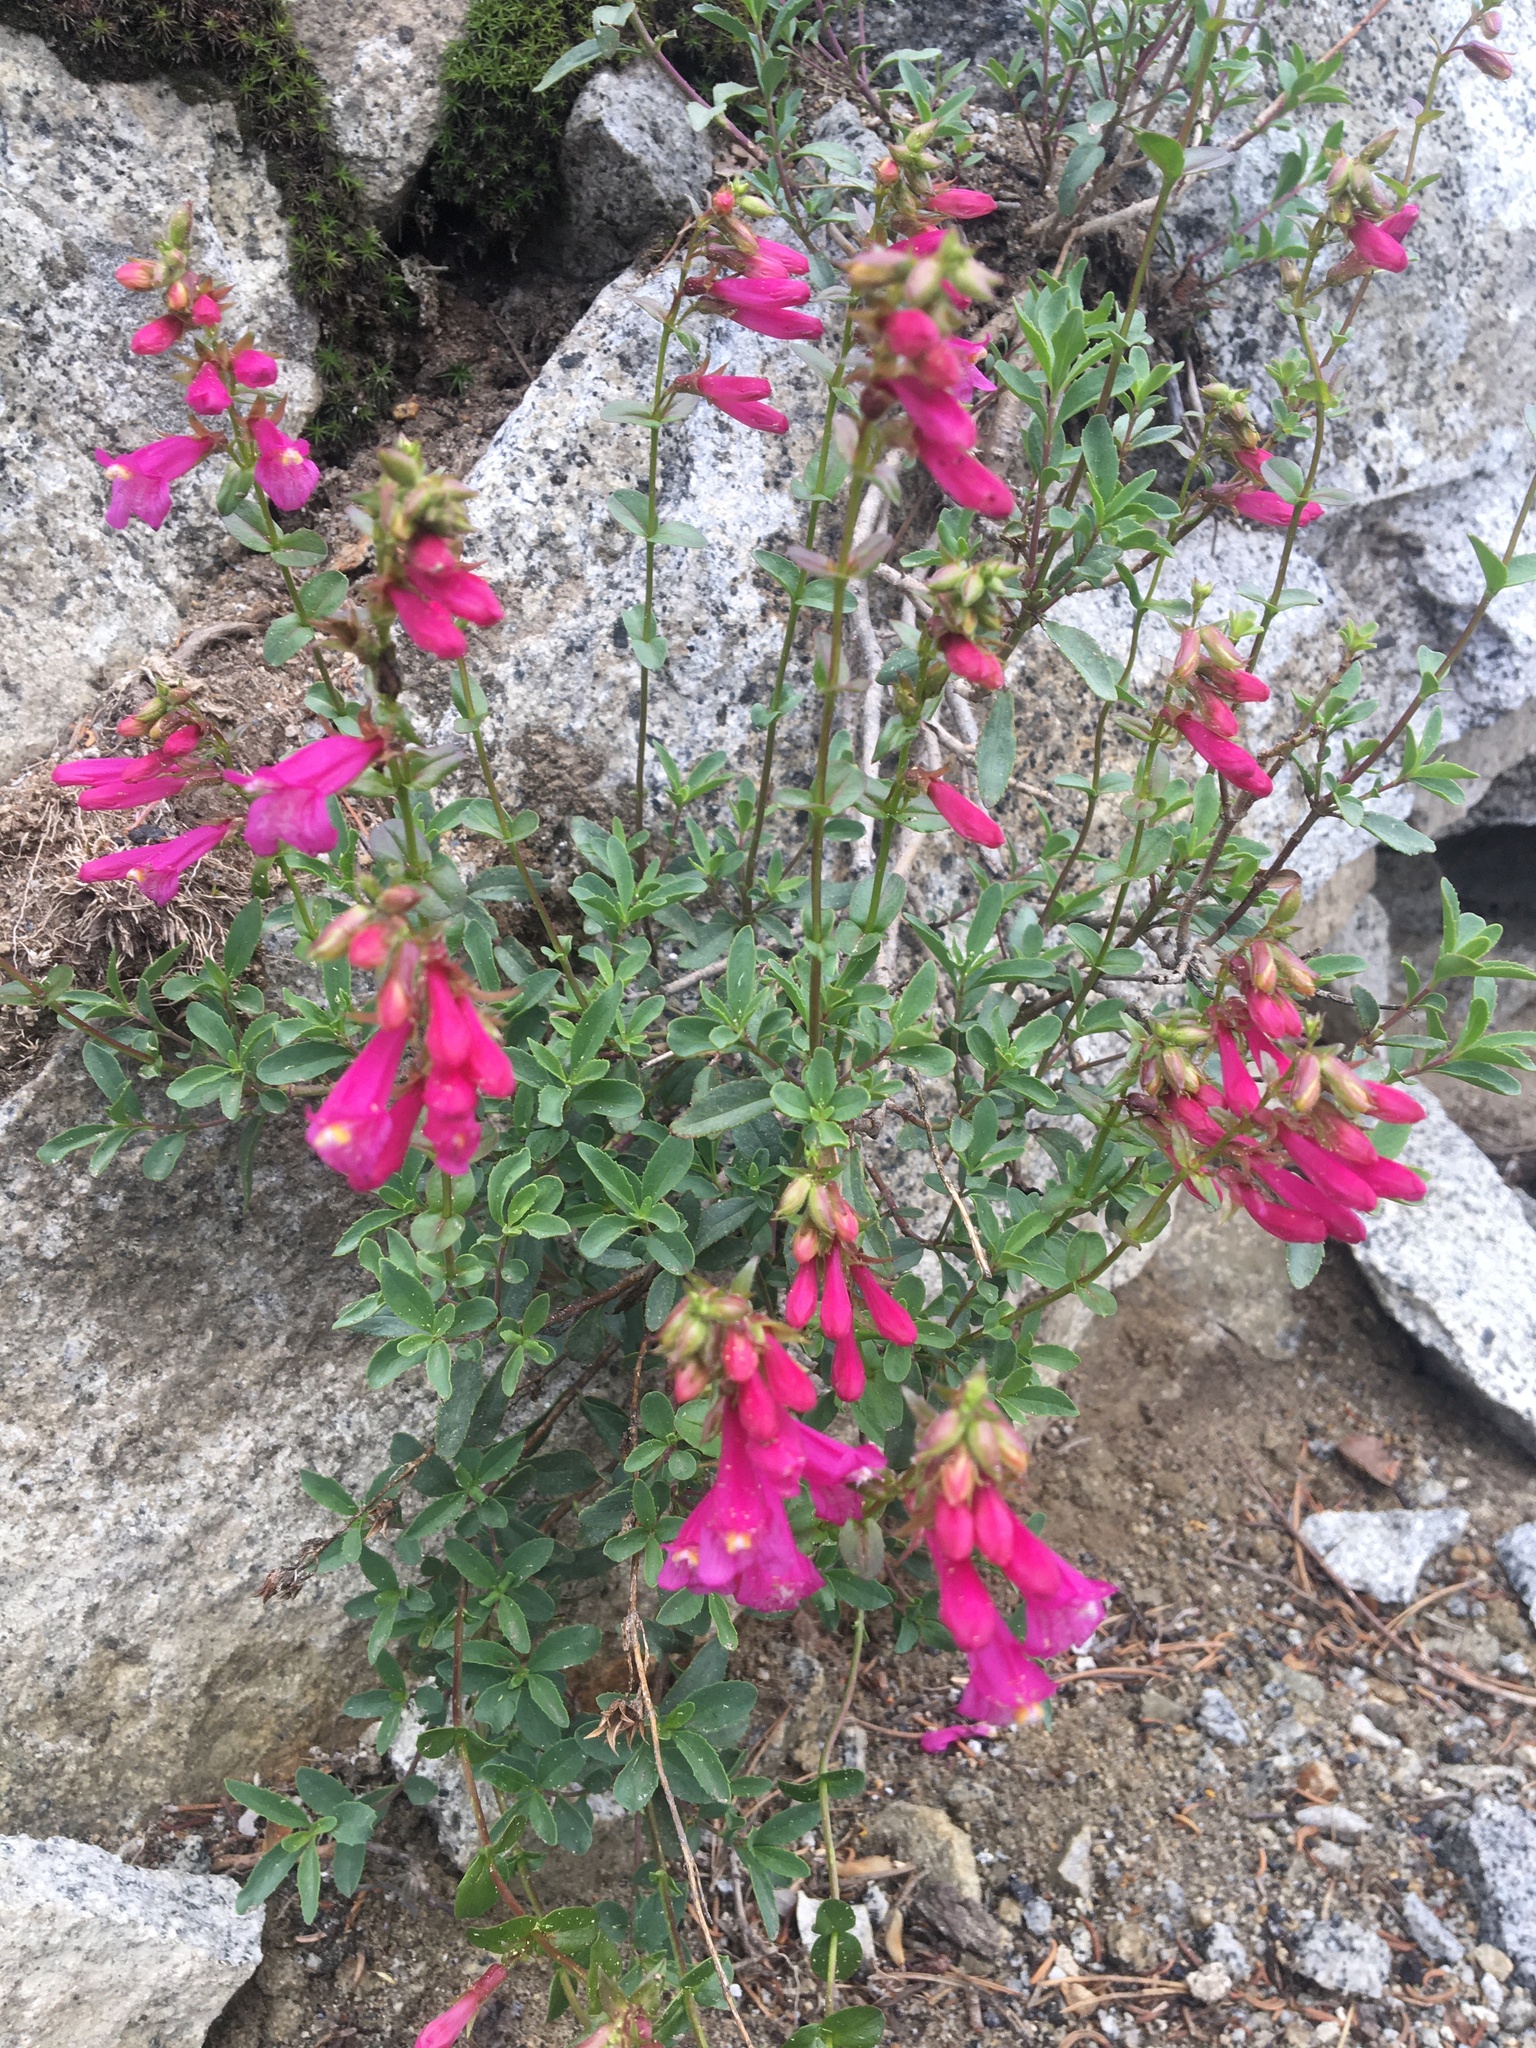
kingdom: Plantae
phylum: Tracheophyta
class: Magnoliopsida
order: Lamiales
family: Plantaginaceae
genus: Penstemon
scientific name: Penstemon newberryi
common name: Mountain-pride
